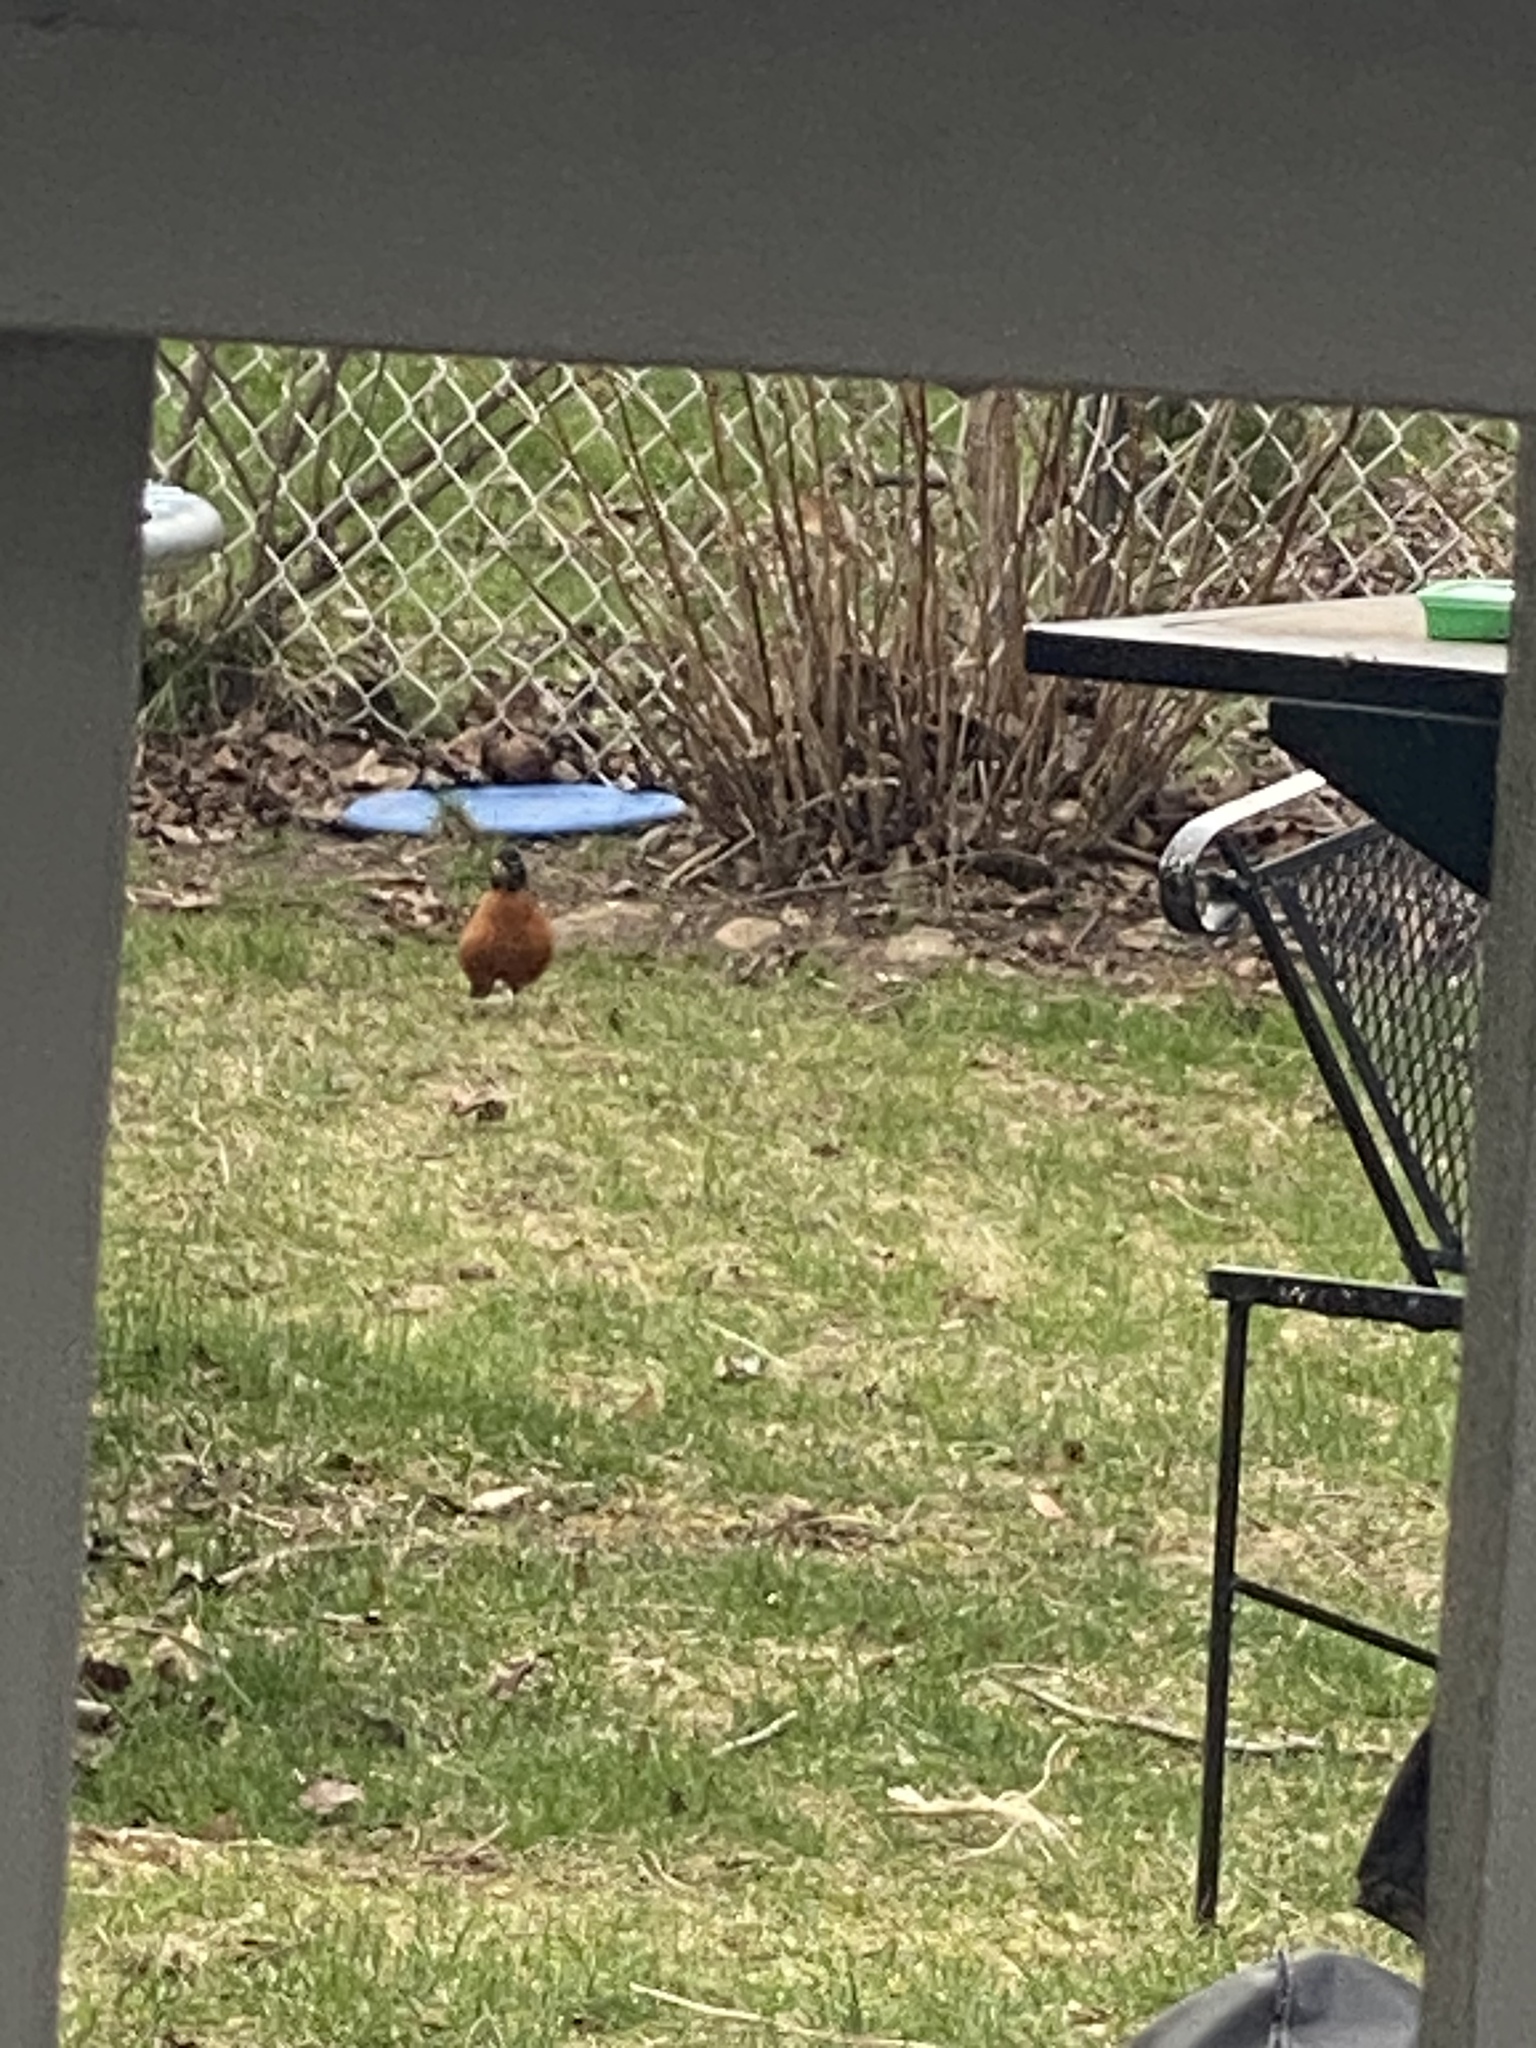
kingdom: Animalia
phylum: Chordata
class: Aves
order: Passeriformes
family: Turdidae
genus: Turdus
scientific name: Turdus migratorius
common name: American robin
